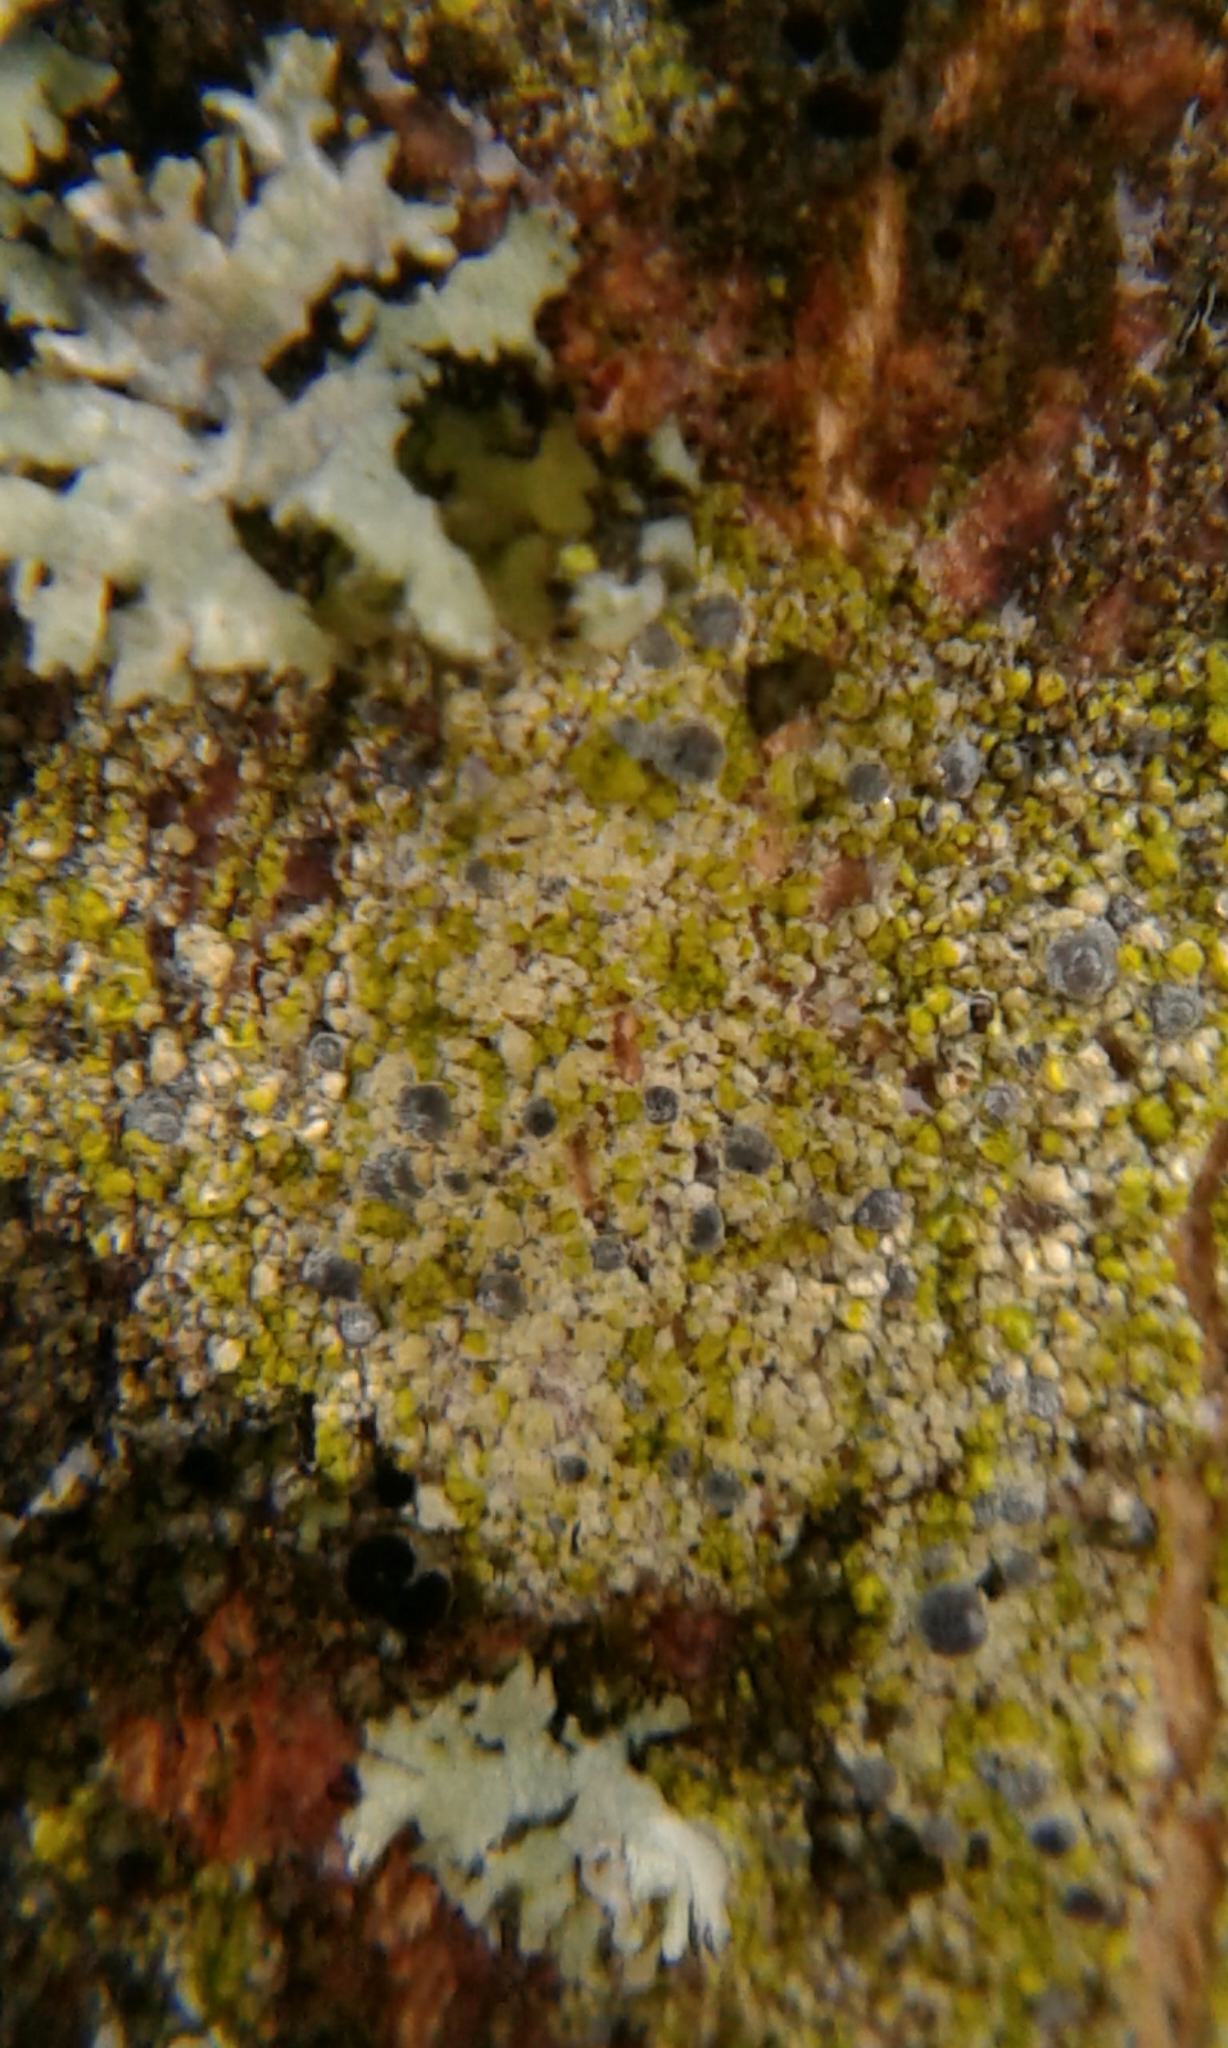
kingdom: Fungi
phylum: Ascomycota
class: Arthoniomycetes
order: Arthoniales
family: Chrysotrichaceae
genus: Chrysothrix
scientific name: Chrysothrix caesia
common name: Frosted comma lichen
